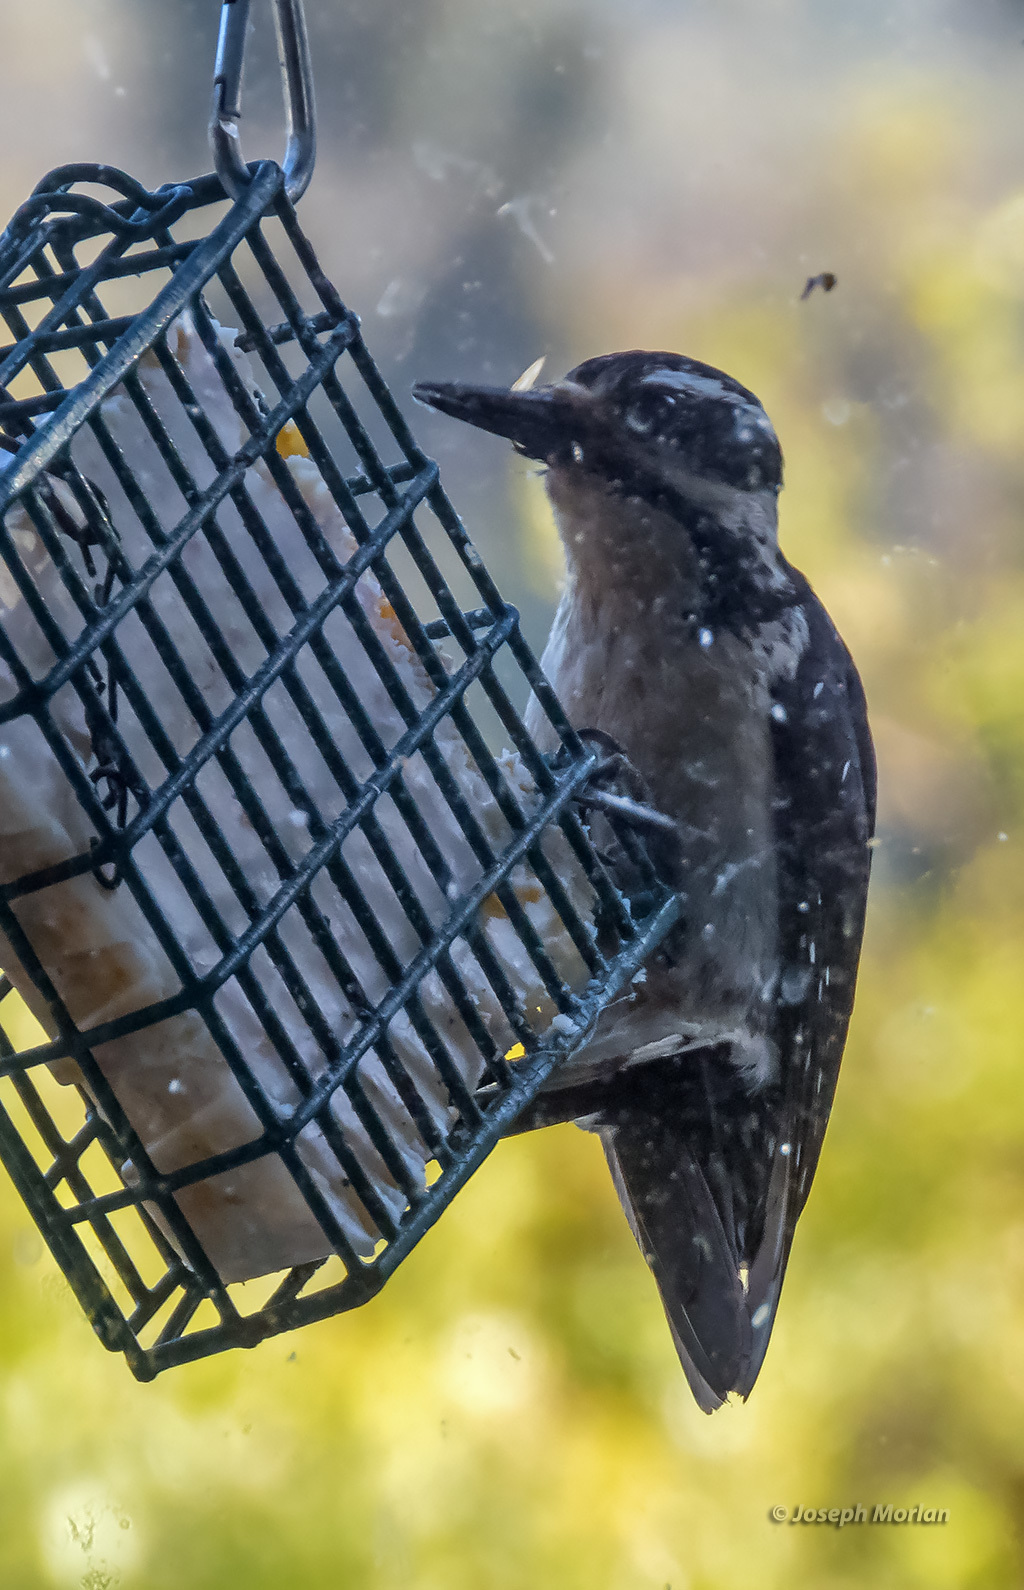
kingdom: Animalia
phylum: Chordata
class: Aves
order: Piciformes
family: Picidae
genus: Leuconotopicus
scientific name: Leuconotopicus villosus
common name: Hairy woodpecker
